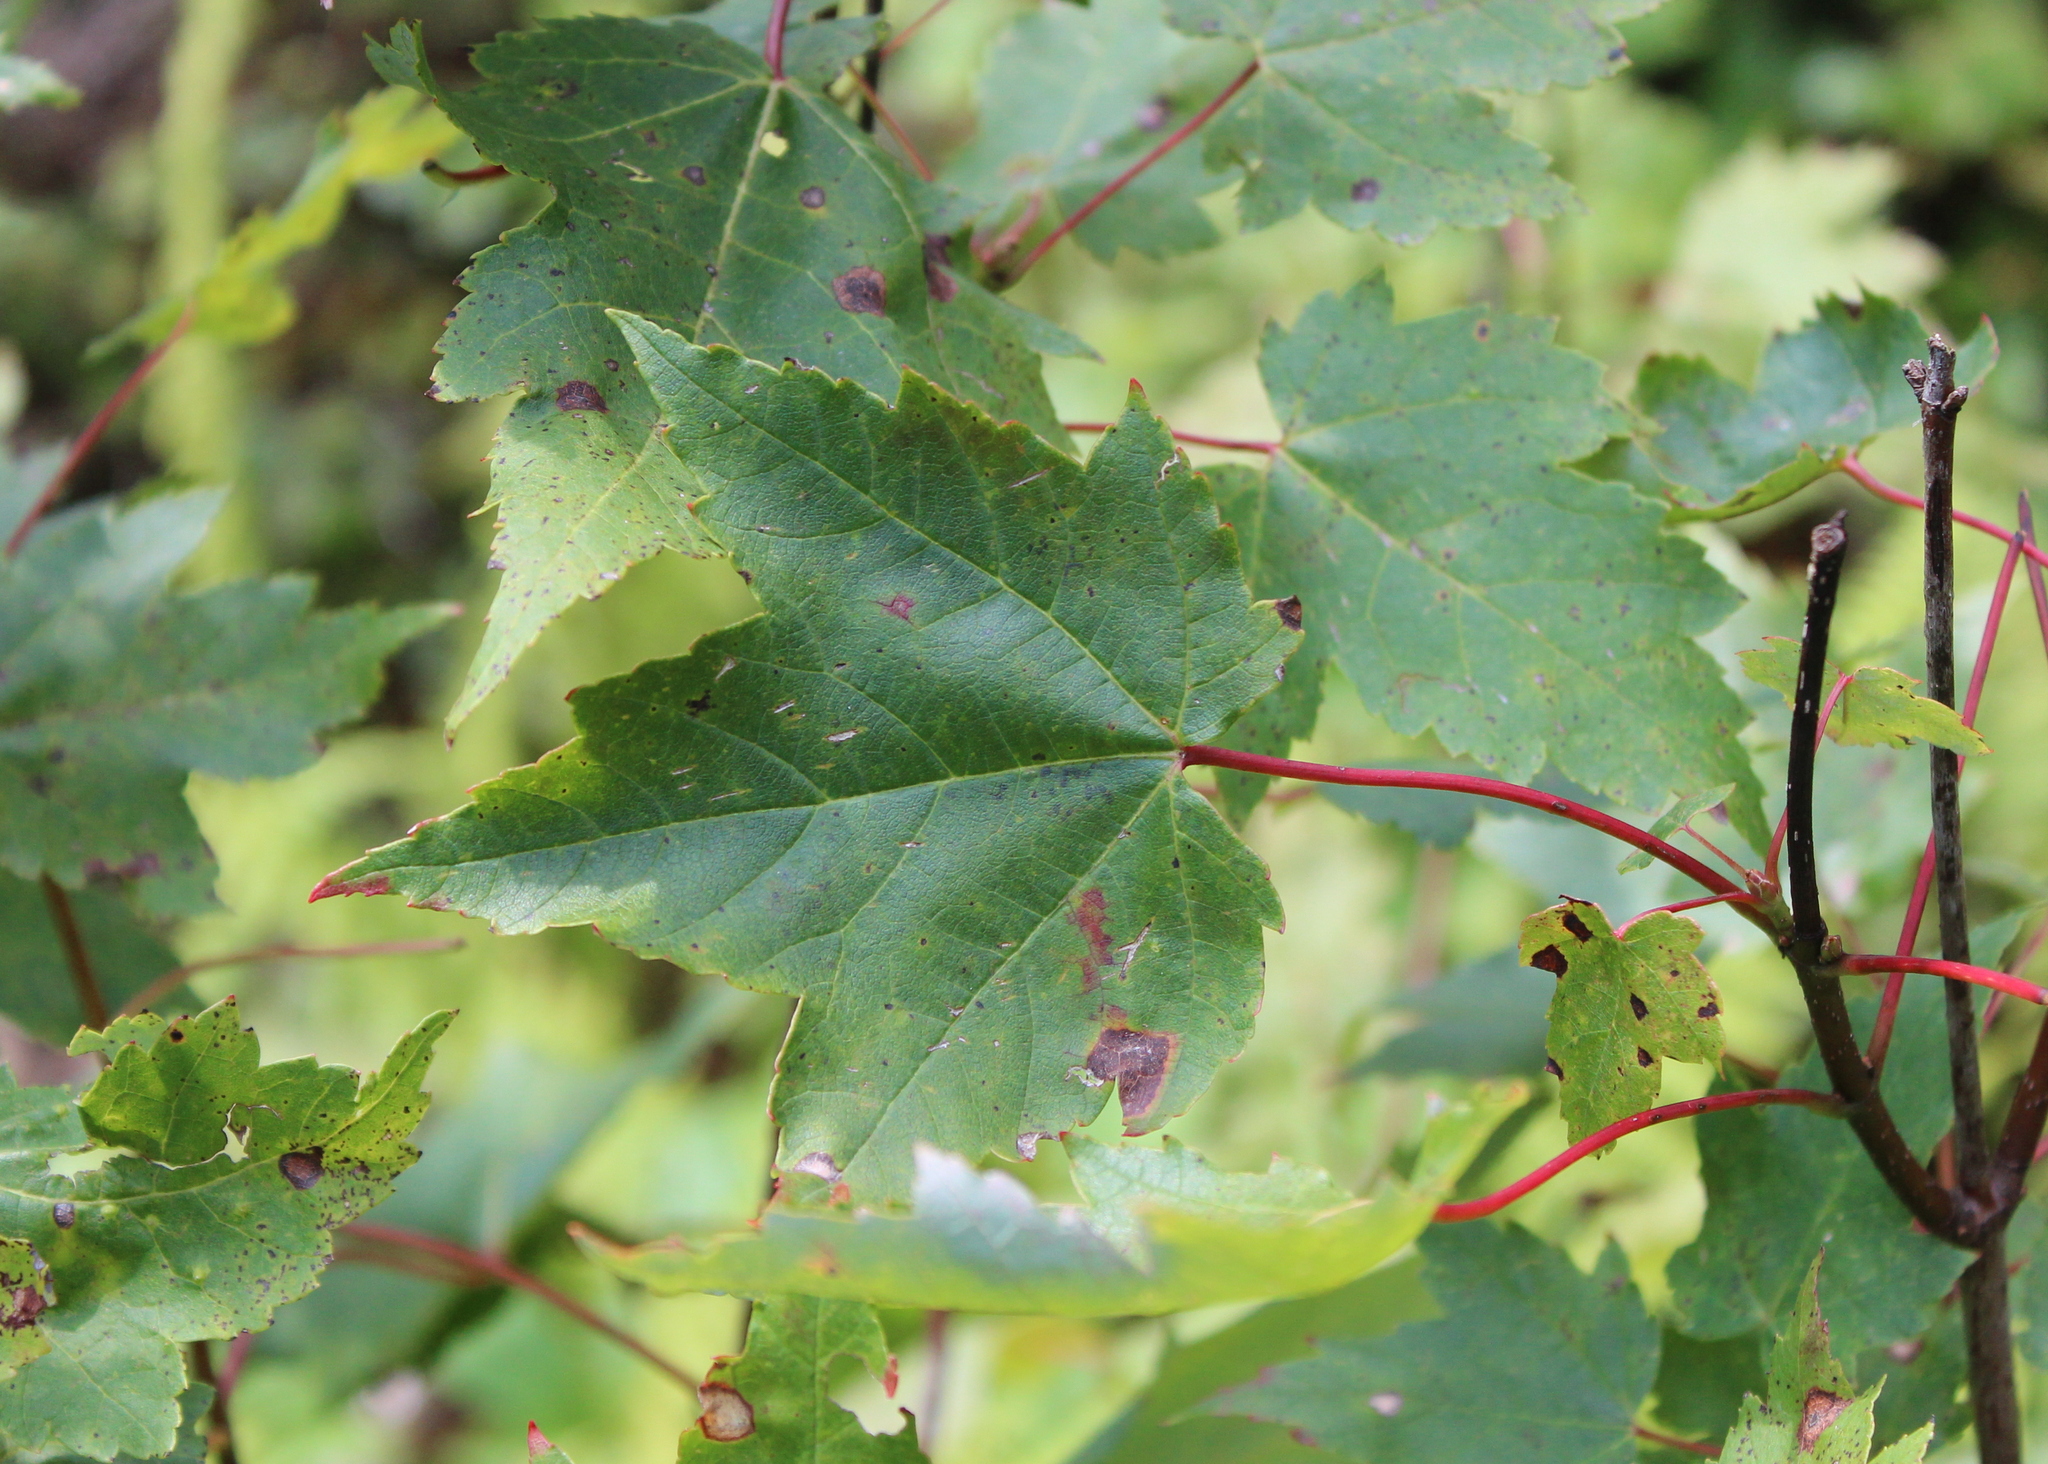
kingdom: Plantae
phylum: Tracheophyta
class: Magnoliopsida
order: Sapindales
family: Sapindaceae
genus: Acer
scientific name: Acer rubrum
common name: Red maple
